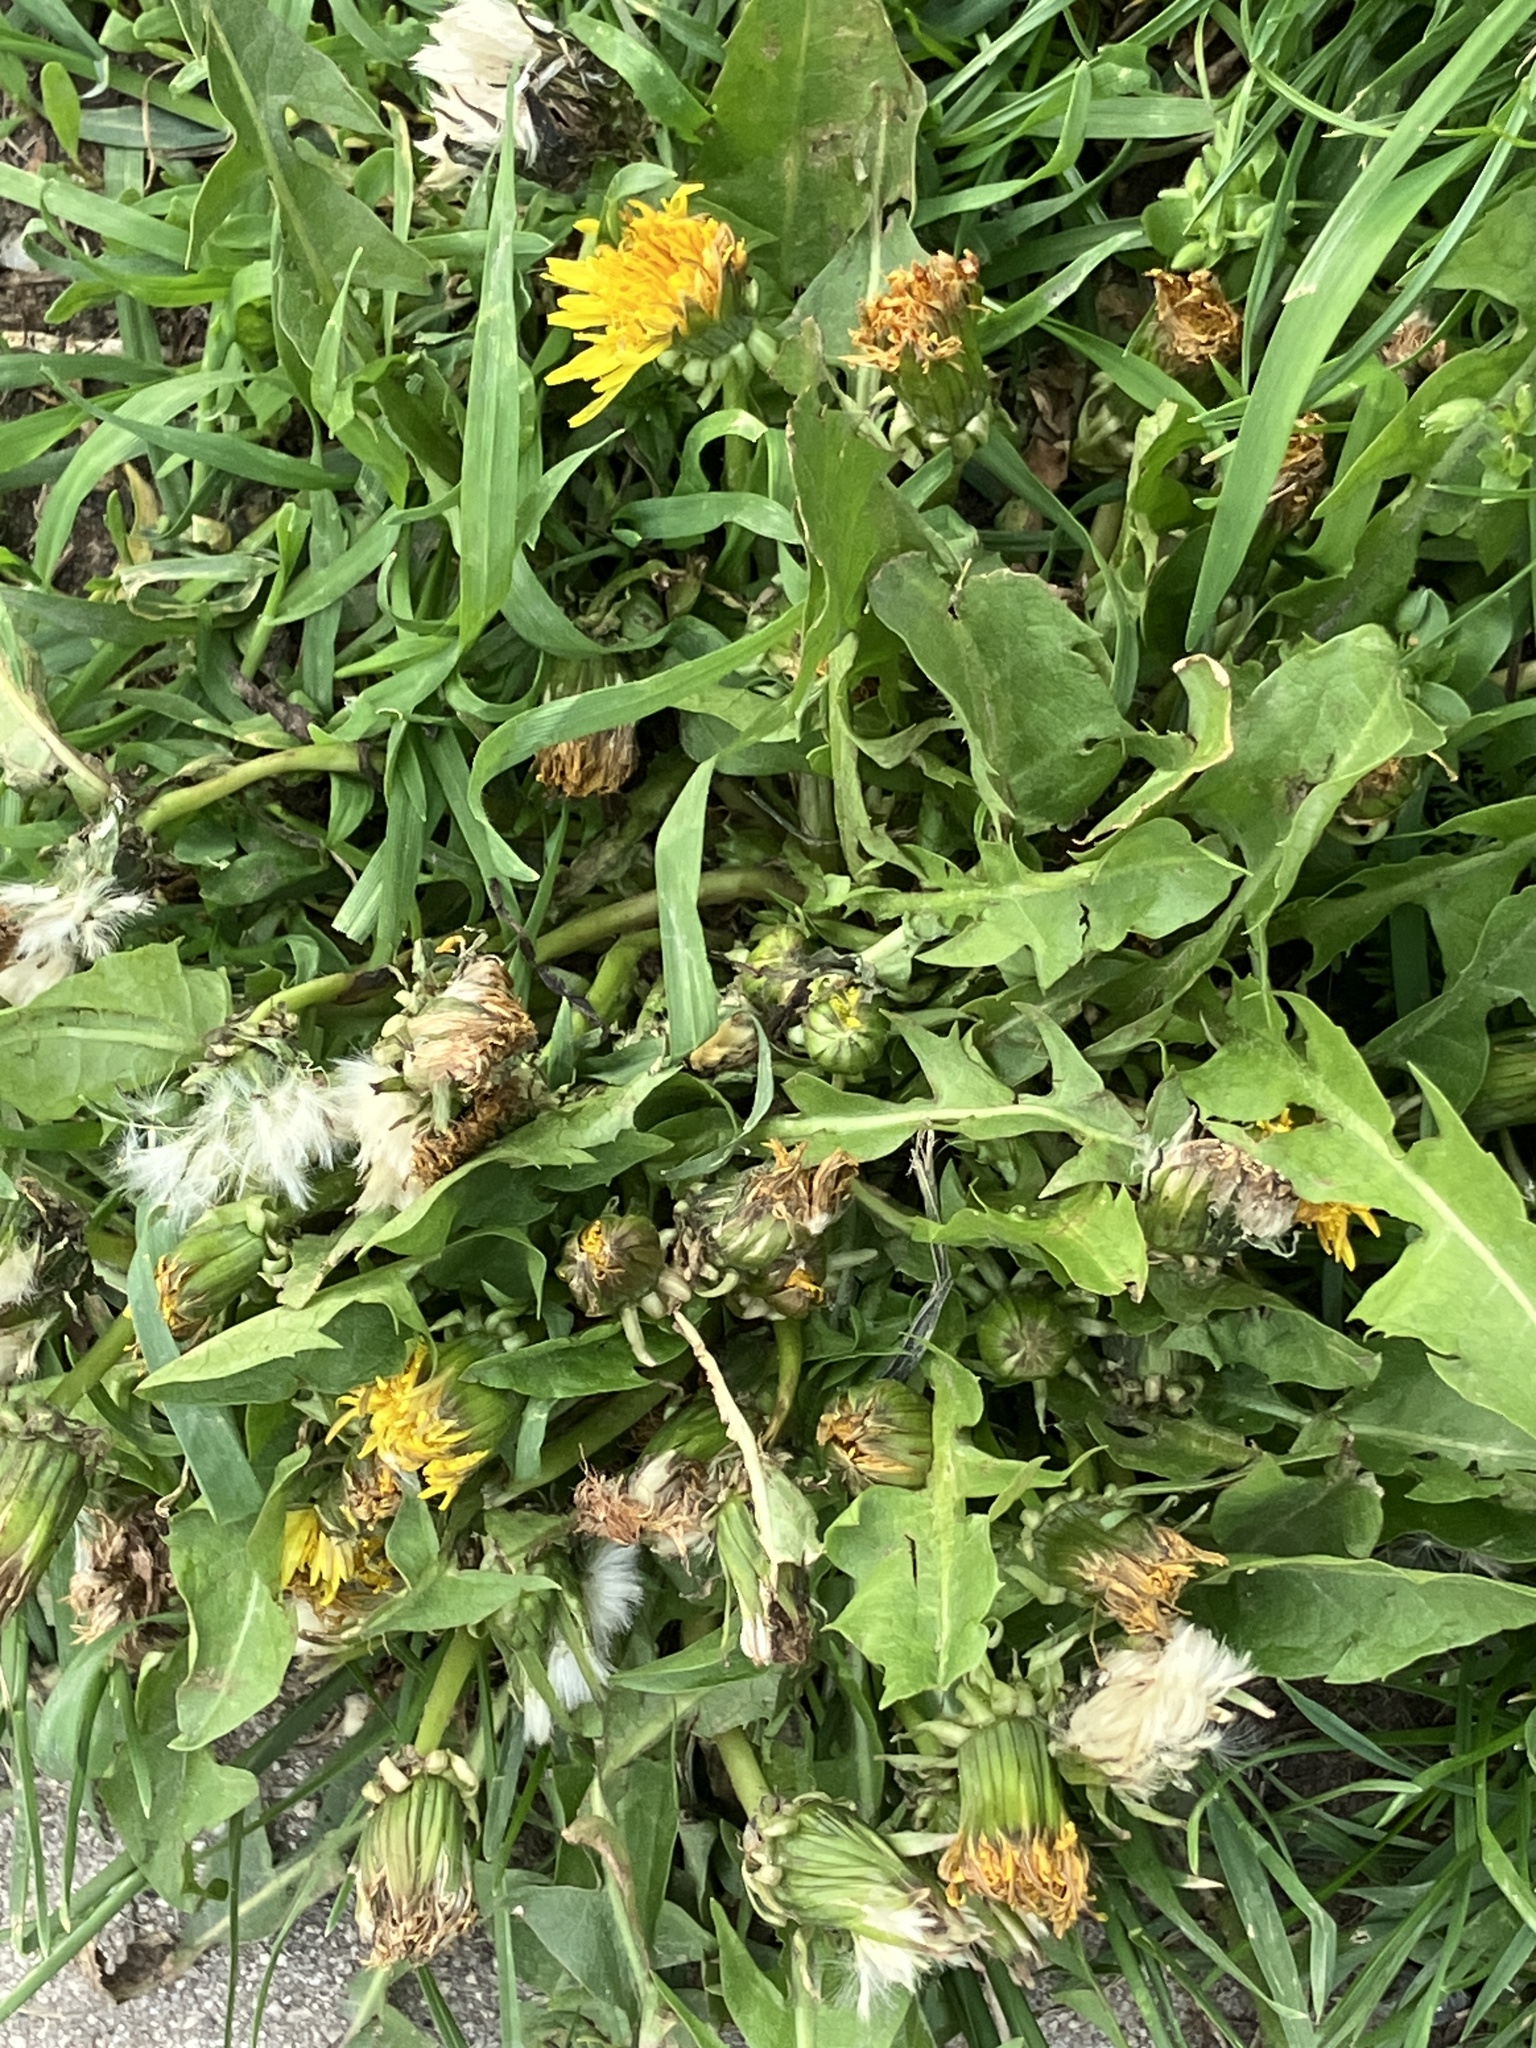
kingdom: Plantae
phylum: Tracheophyta
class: Magnoliopsida
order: Asterales
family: Asteraceae
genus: Taraxacum
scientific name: Taraxacum
